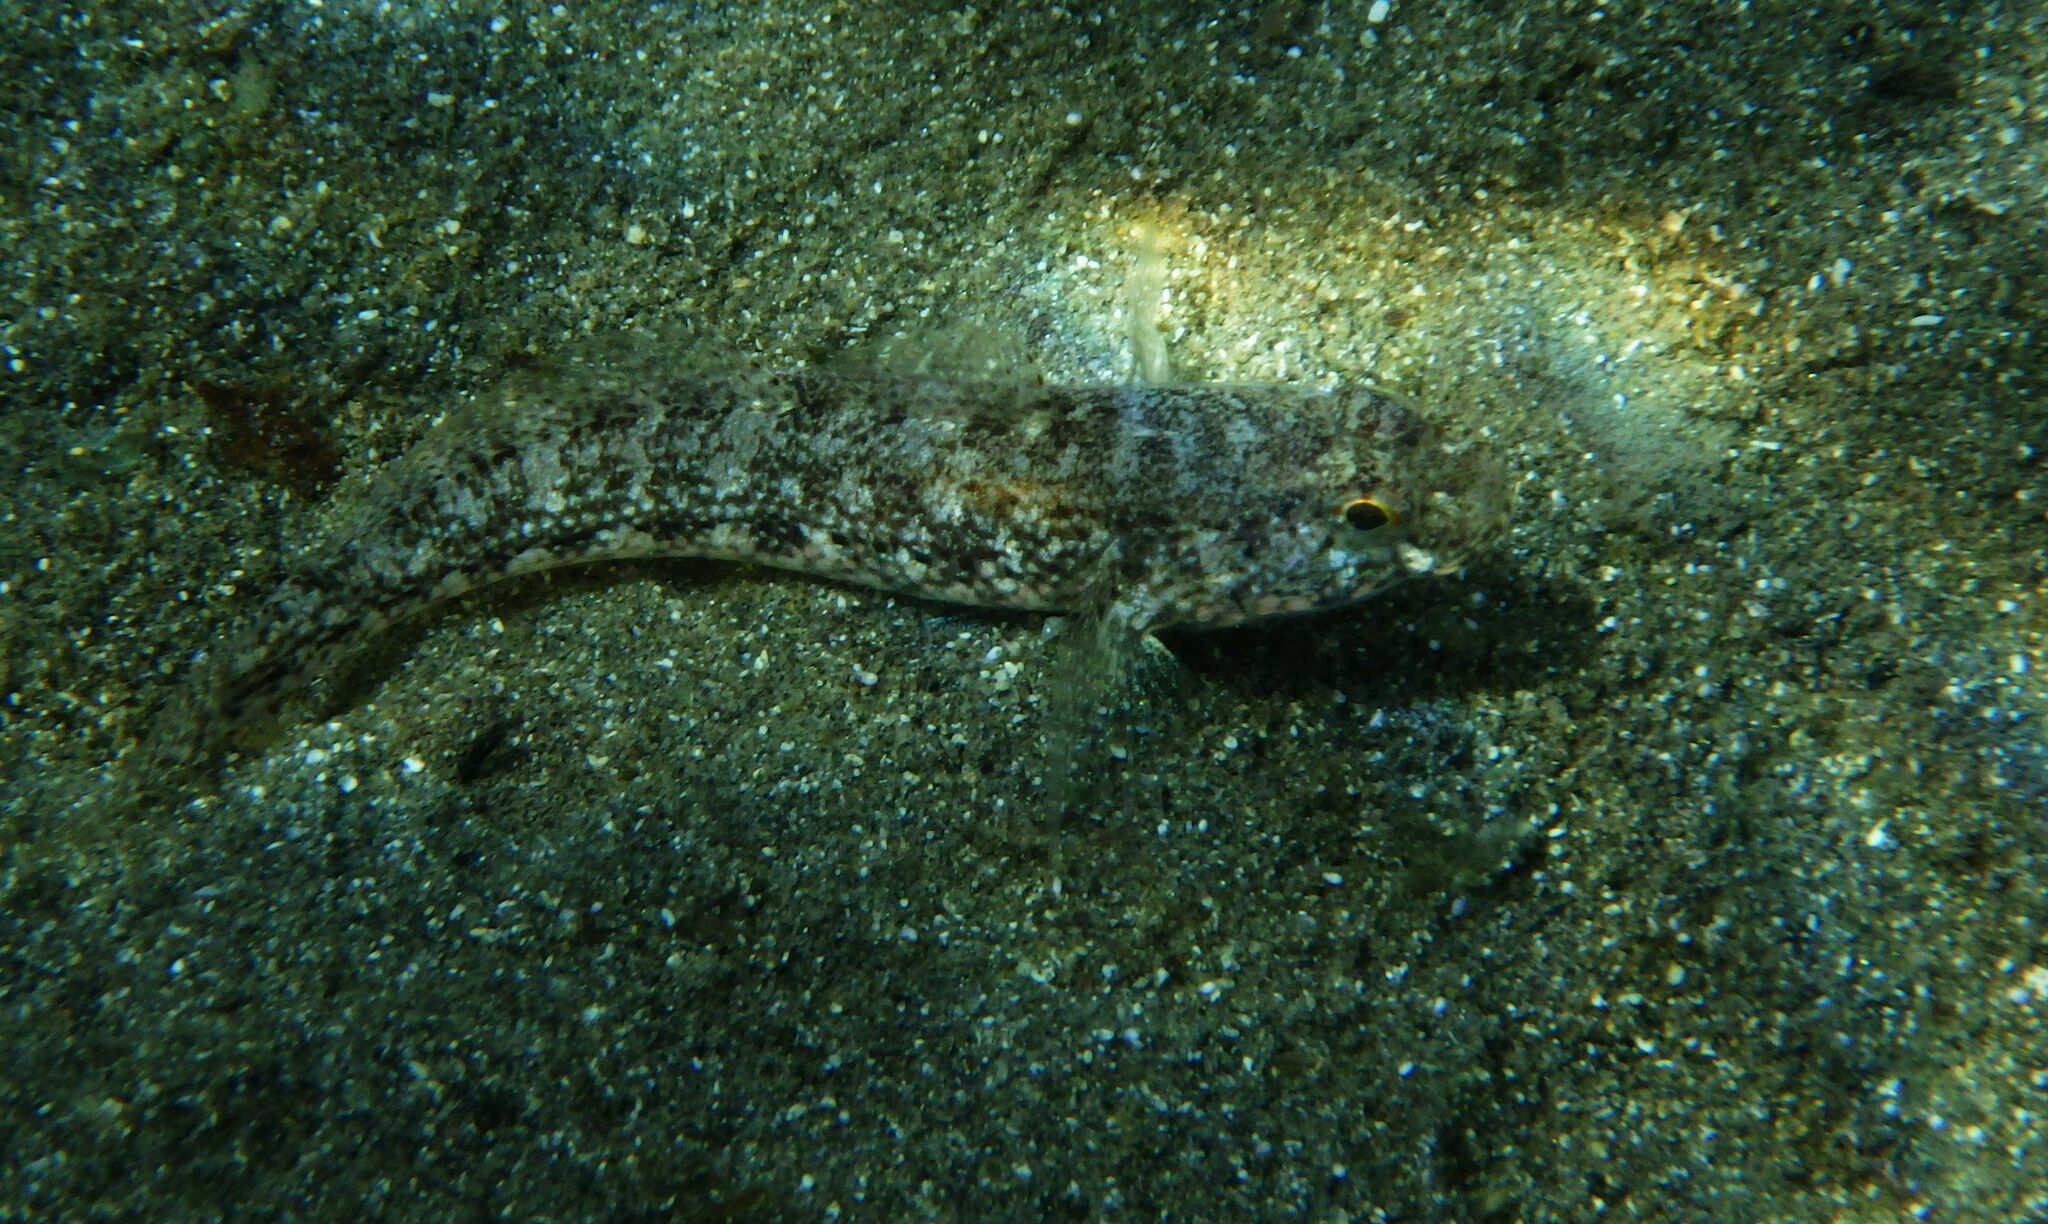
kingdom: Animalia
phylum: Chordata
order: Perciformes
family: Gobiidae
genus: Gobius
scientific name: Gobius couchi
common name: Couch's goby
